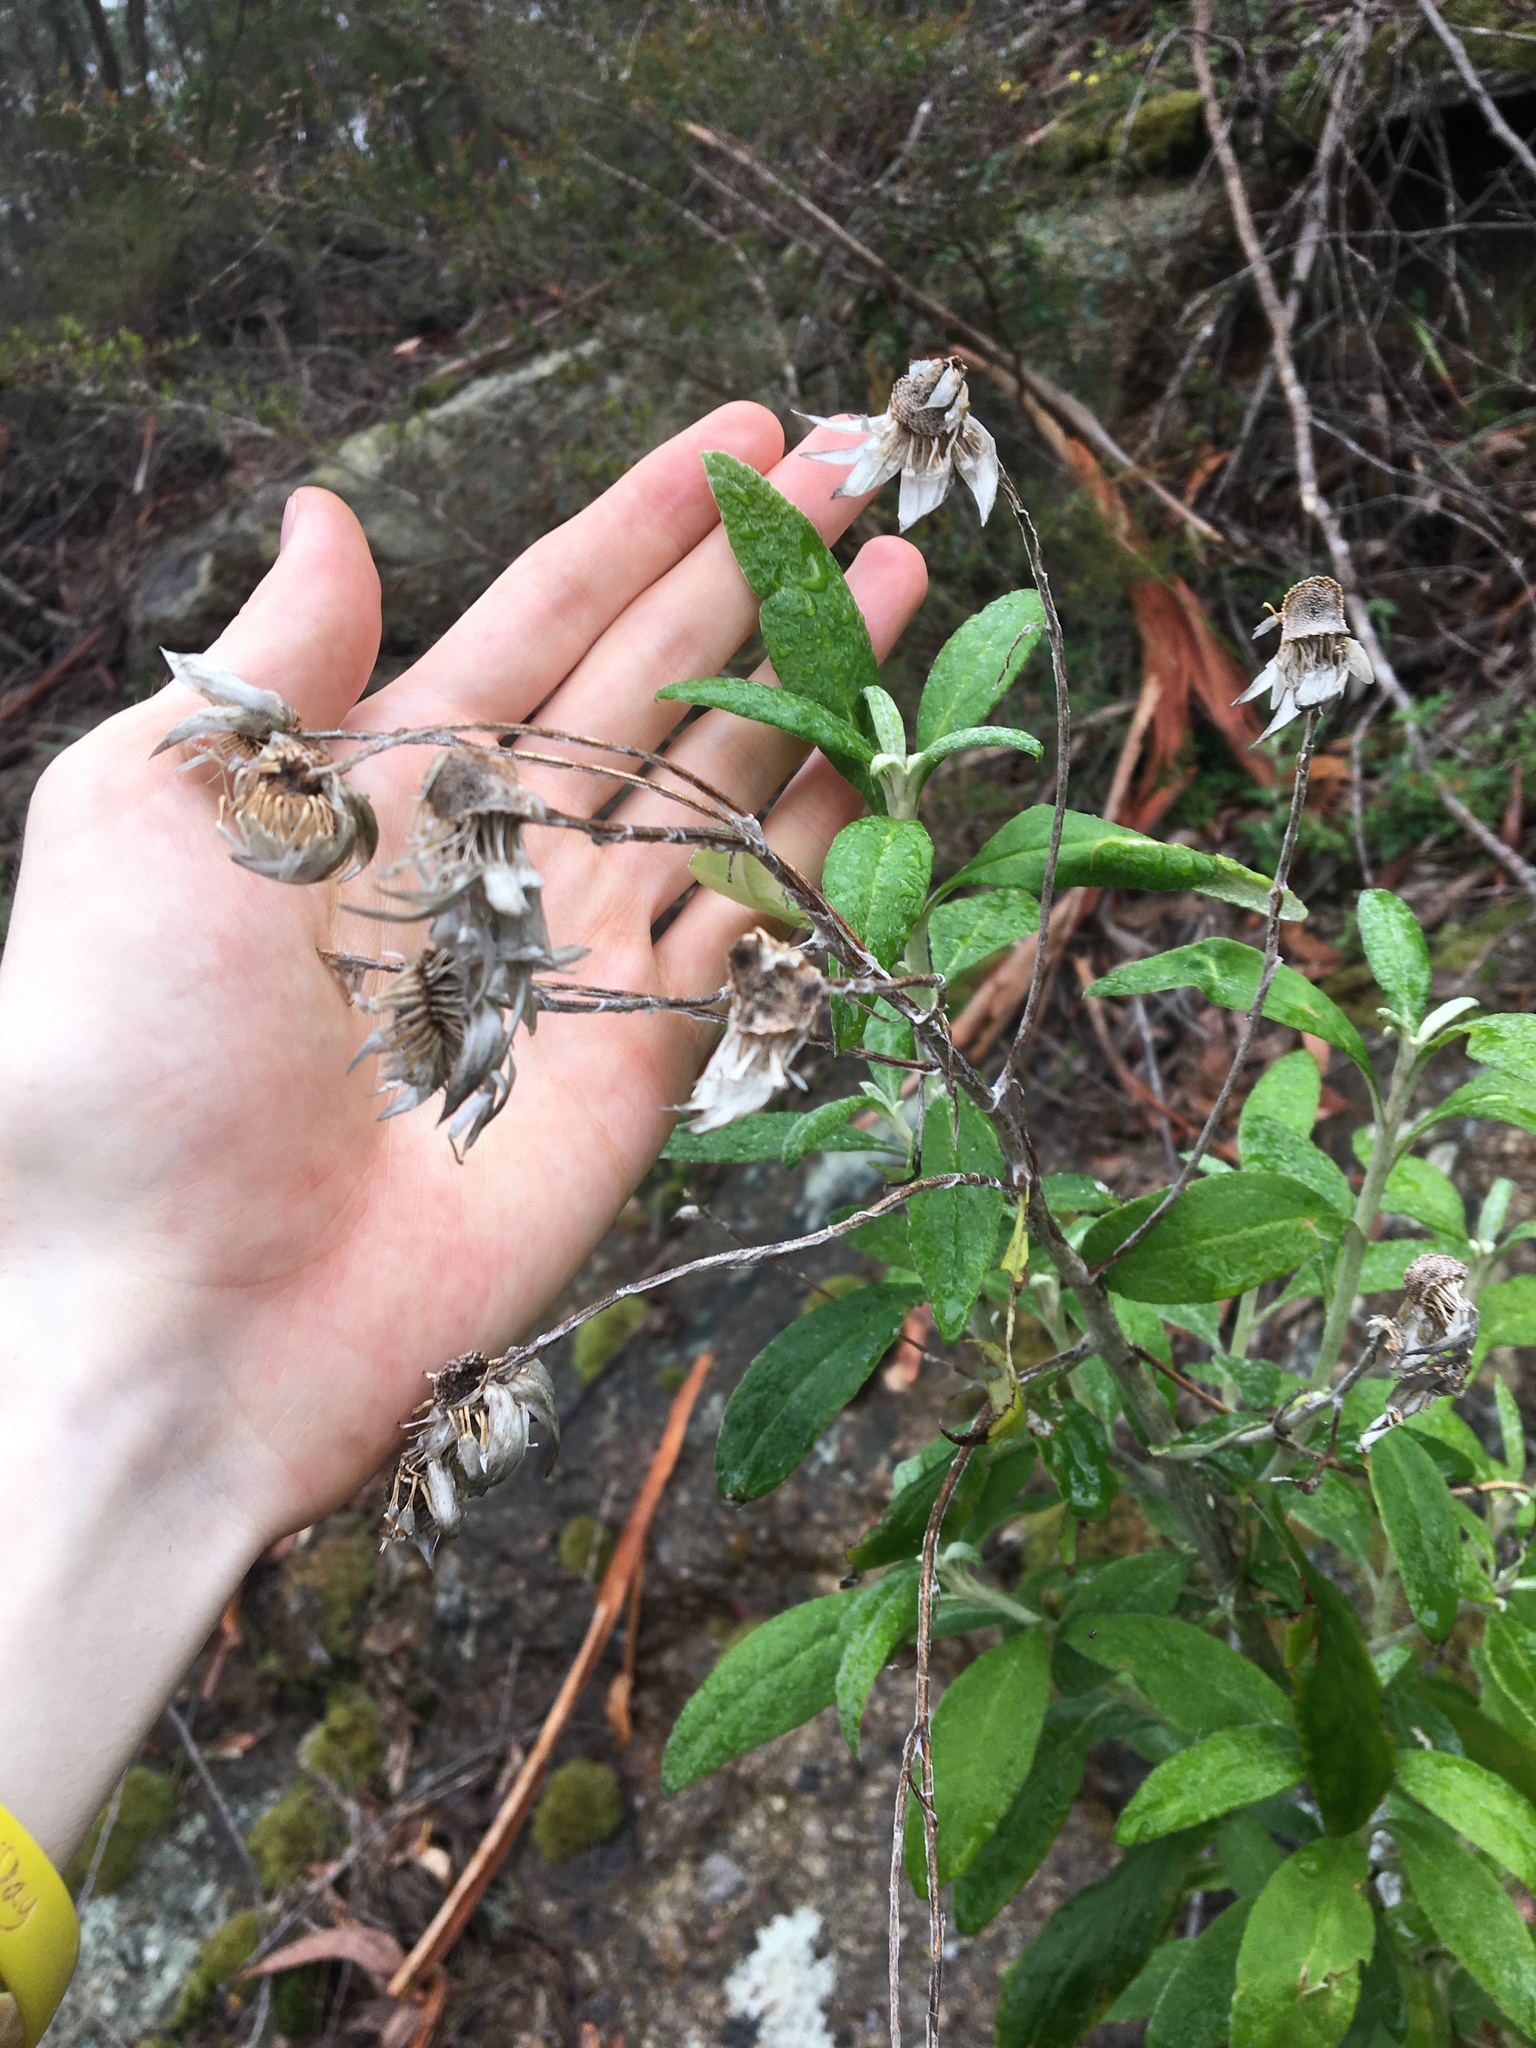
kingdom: Plantae
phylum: Tracheophyta
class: Magnoliopsida
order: Asterales
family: Asteraceae
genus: Leucozoma
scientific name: Leucozoma elatum
